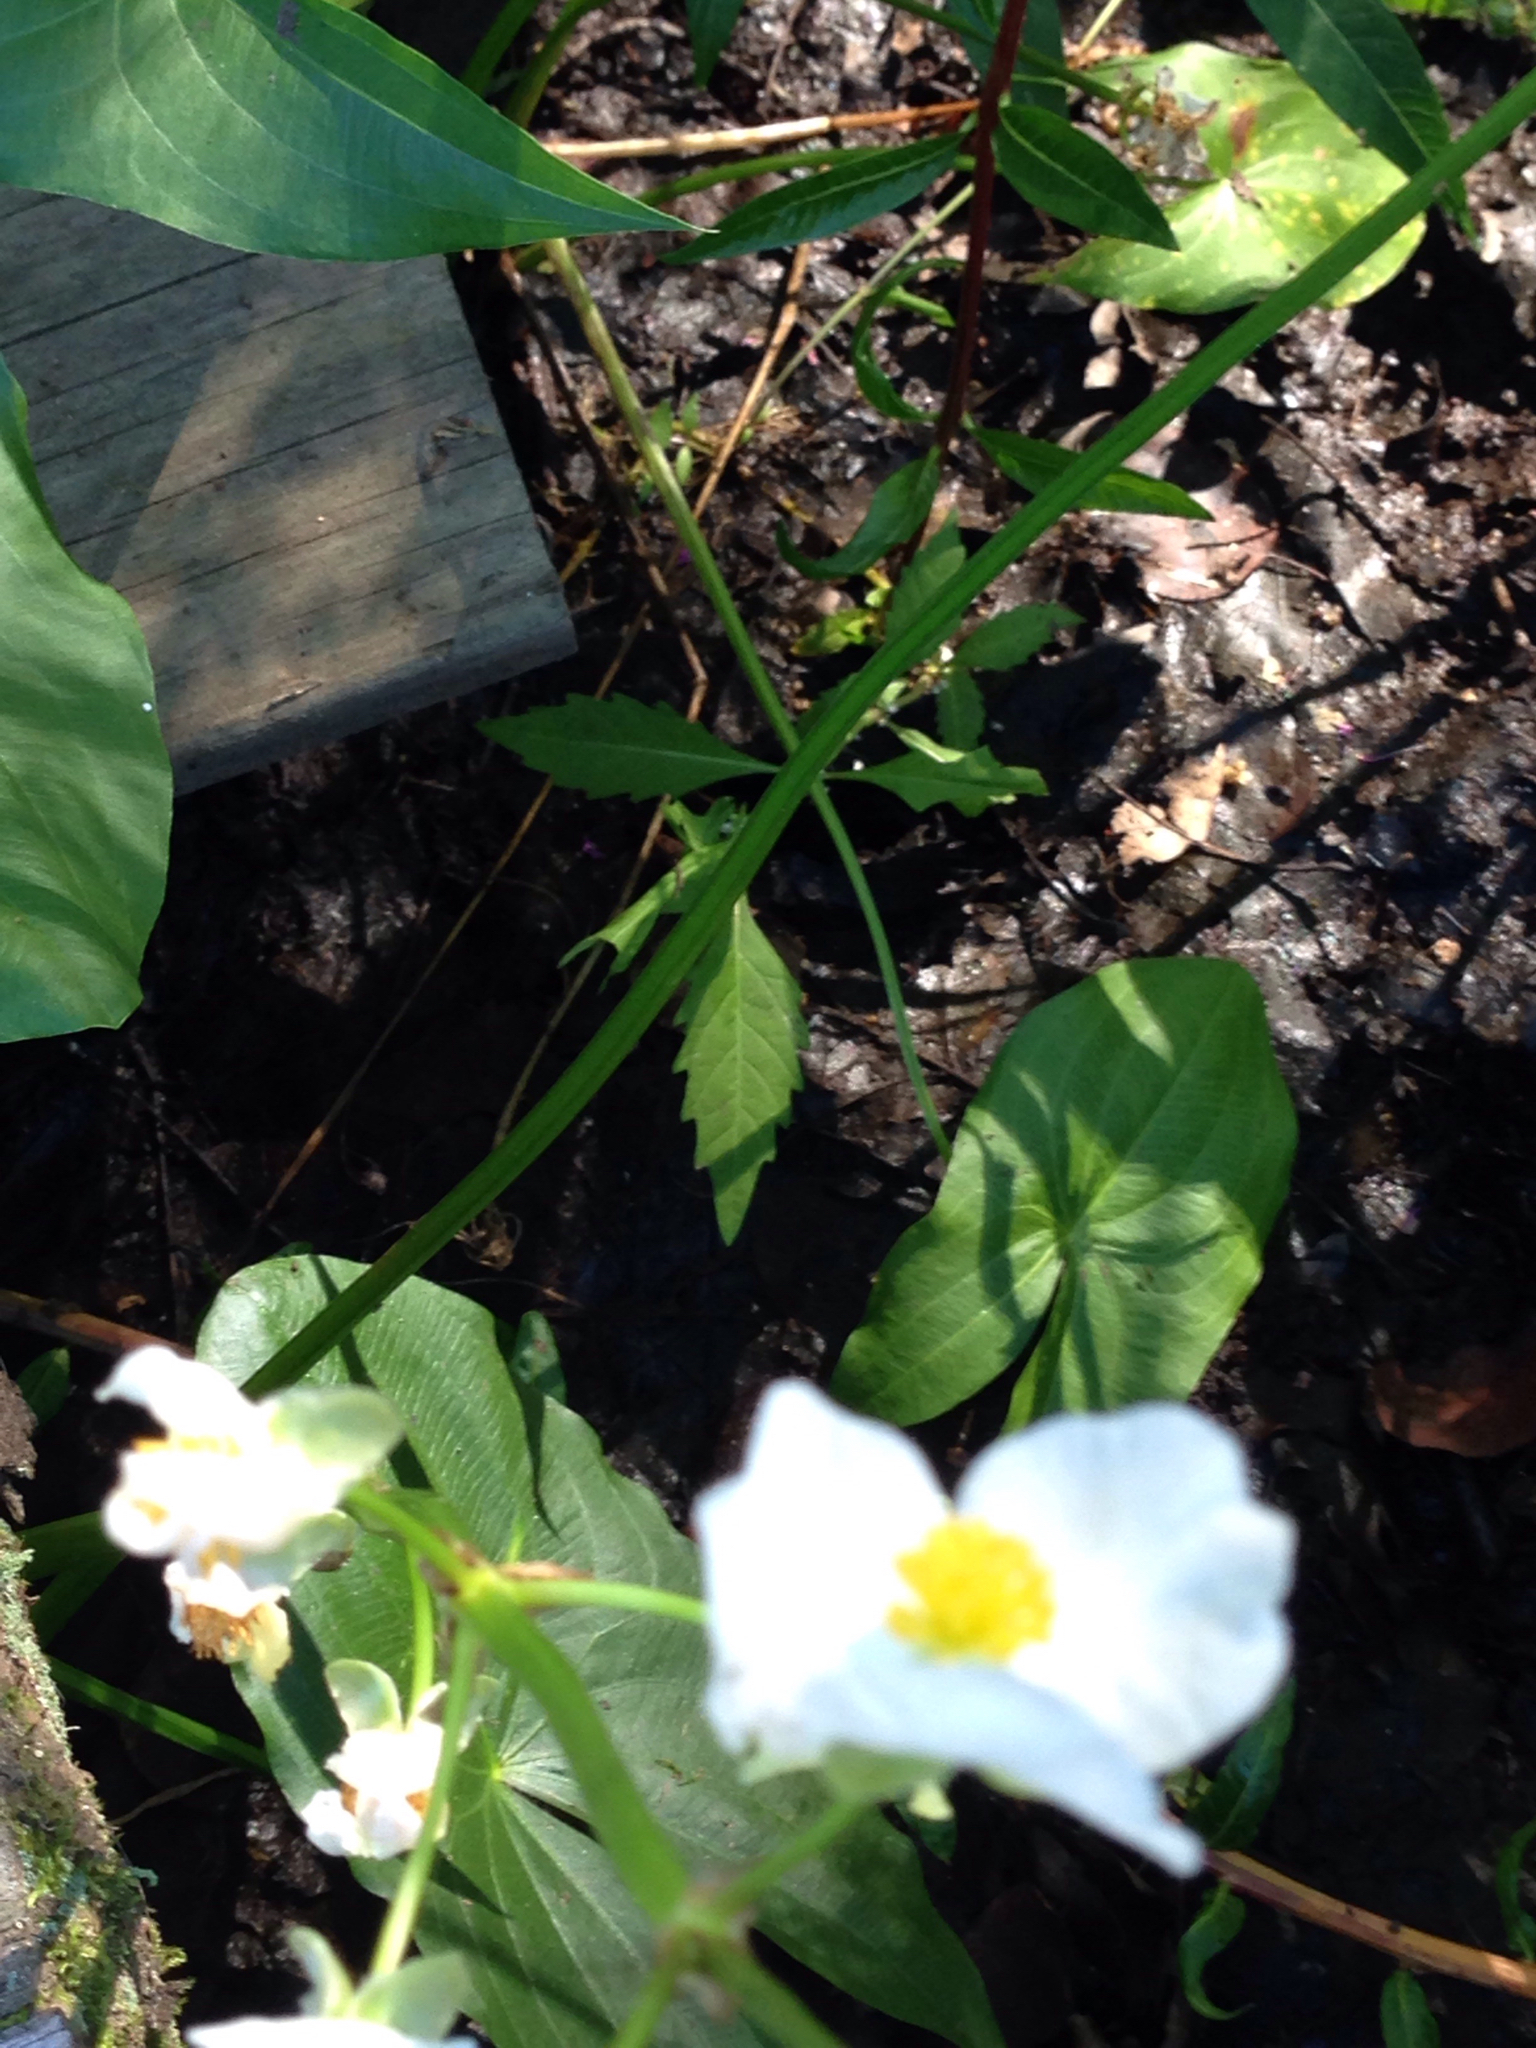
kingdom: Plantae
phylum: Tracheophyta
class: Liliopsida
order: Alismatales
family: Alismataceae
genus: Sagittaria
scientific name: Sagittaria latifolia
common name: Duck-potato
